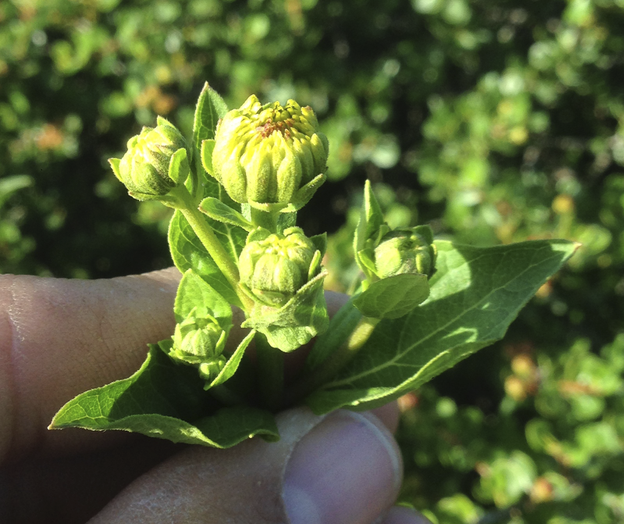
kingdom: Plantae
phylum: Tracheophyta
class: Magnoliopsida
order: Asterales
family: Asteraceae
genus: Verbesina
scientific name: Verbesina dissita
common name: Big-leaf crownbeard
